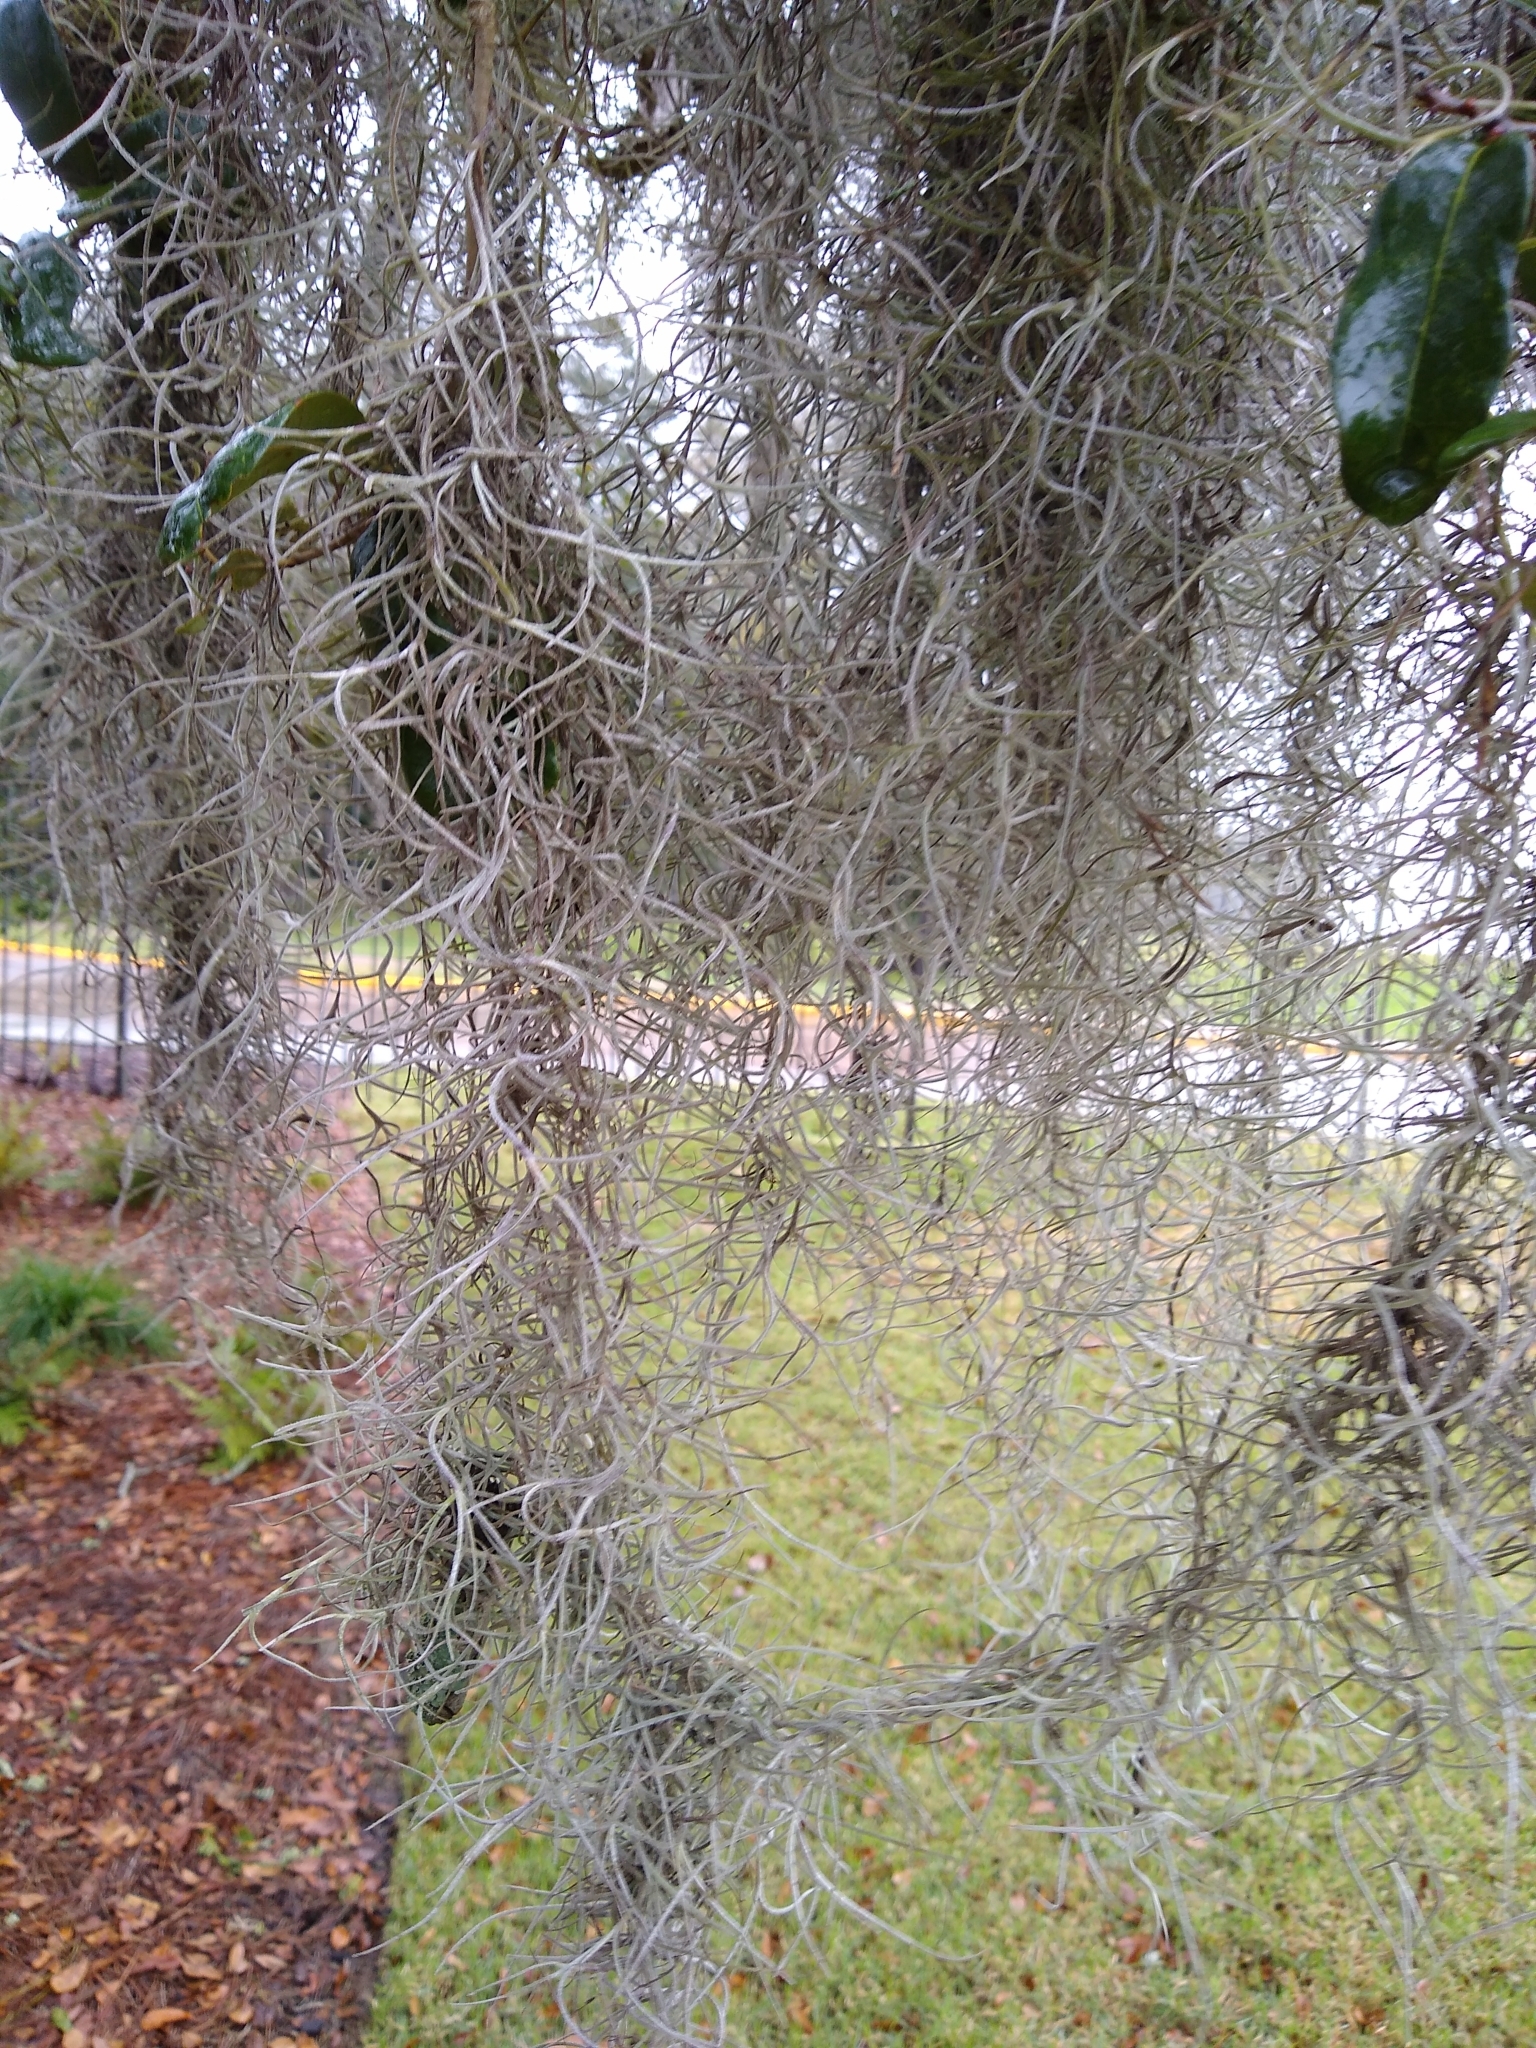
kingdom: Plantae
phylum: Tracheophyta
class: Liliopsida
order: Poales
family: Bromeliaceae
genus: Tillandsia
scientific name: Tillandsia usneoides
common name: Spanish moss
